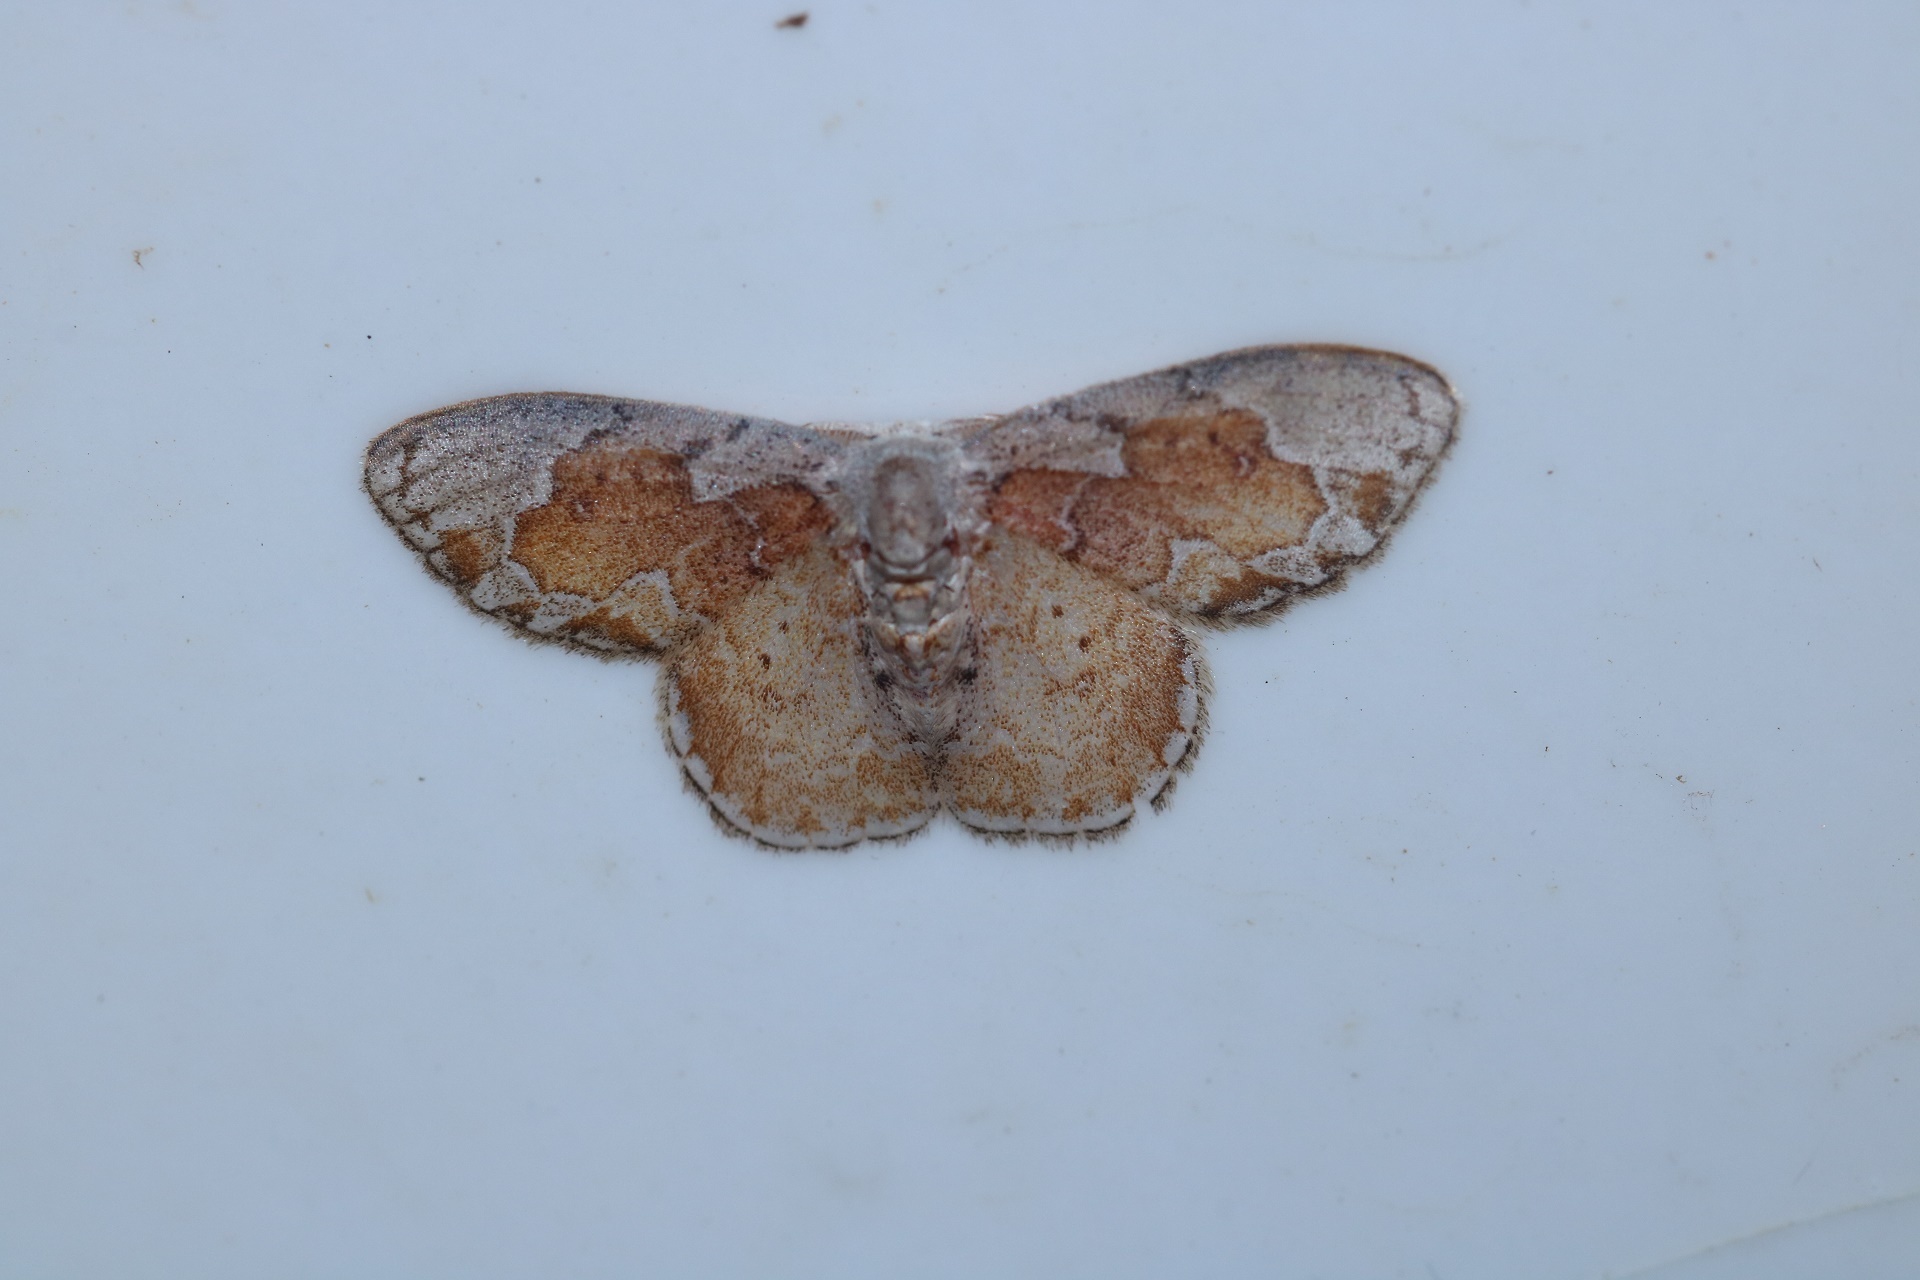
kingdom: Animalia
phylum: Arthropoda
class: Insecta
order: Lepidoptera
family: Drepanidae
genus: Hyalostola
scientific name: Hyalostola phoenicochyta
